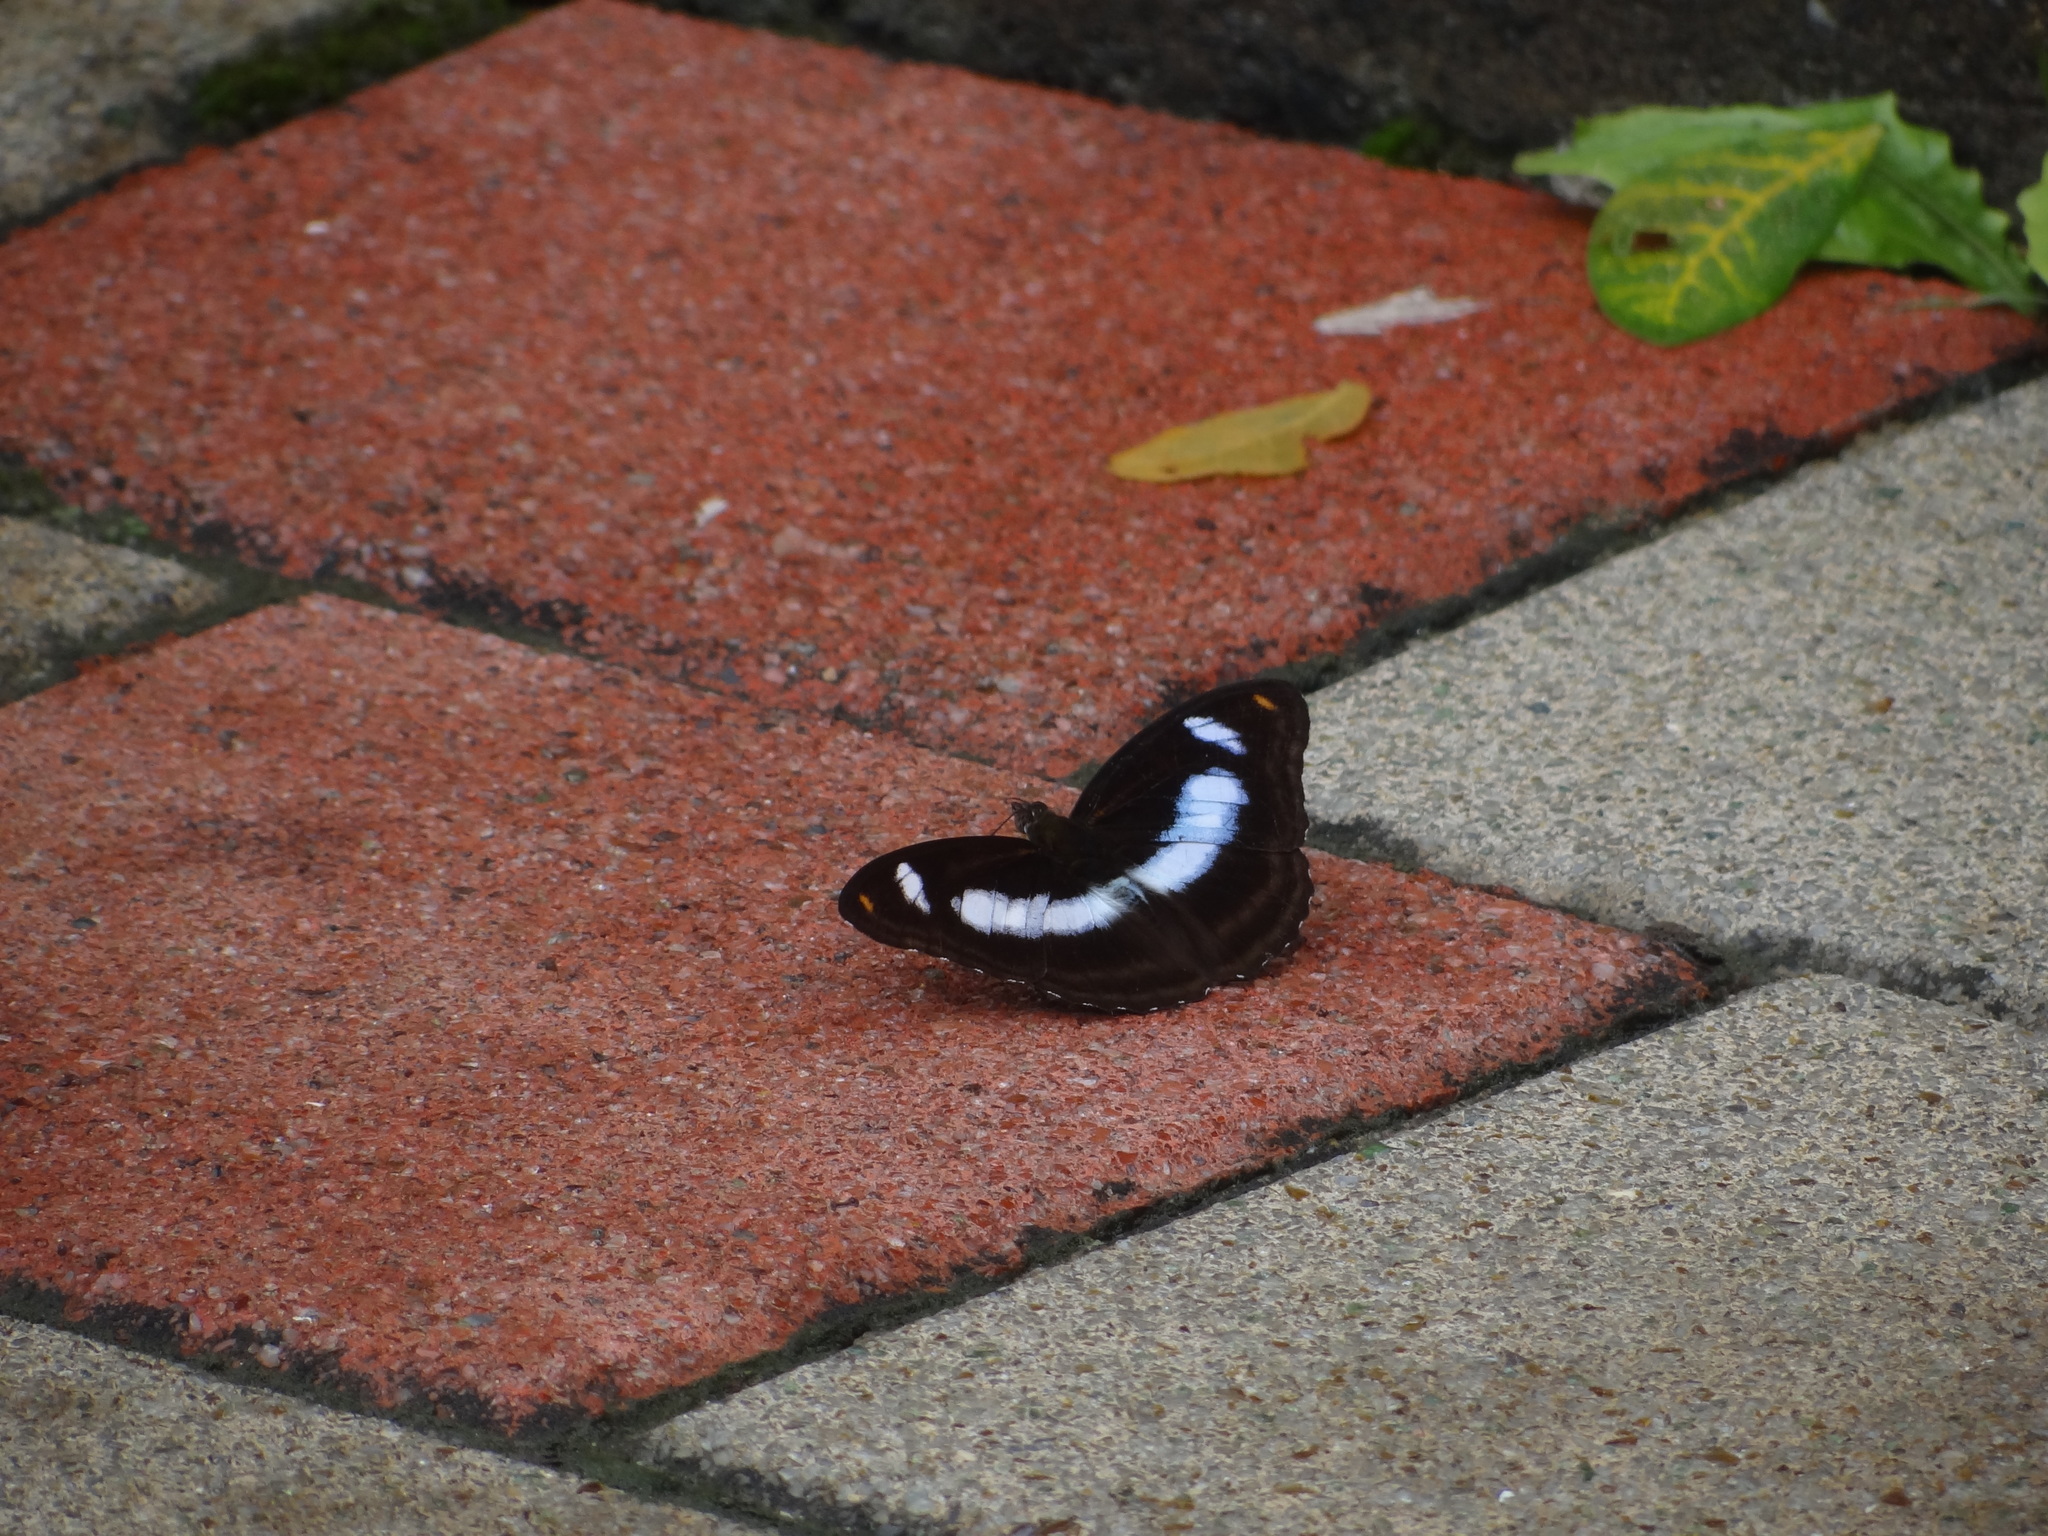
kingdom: Animalia
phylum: Arthropoda
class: Insecta
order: Lepidoptera
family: Nymphalidae
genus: Pantoporia
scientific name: Pantoporia cama
